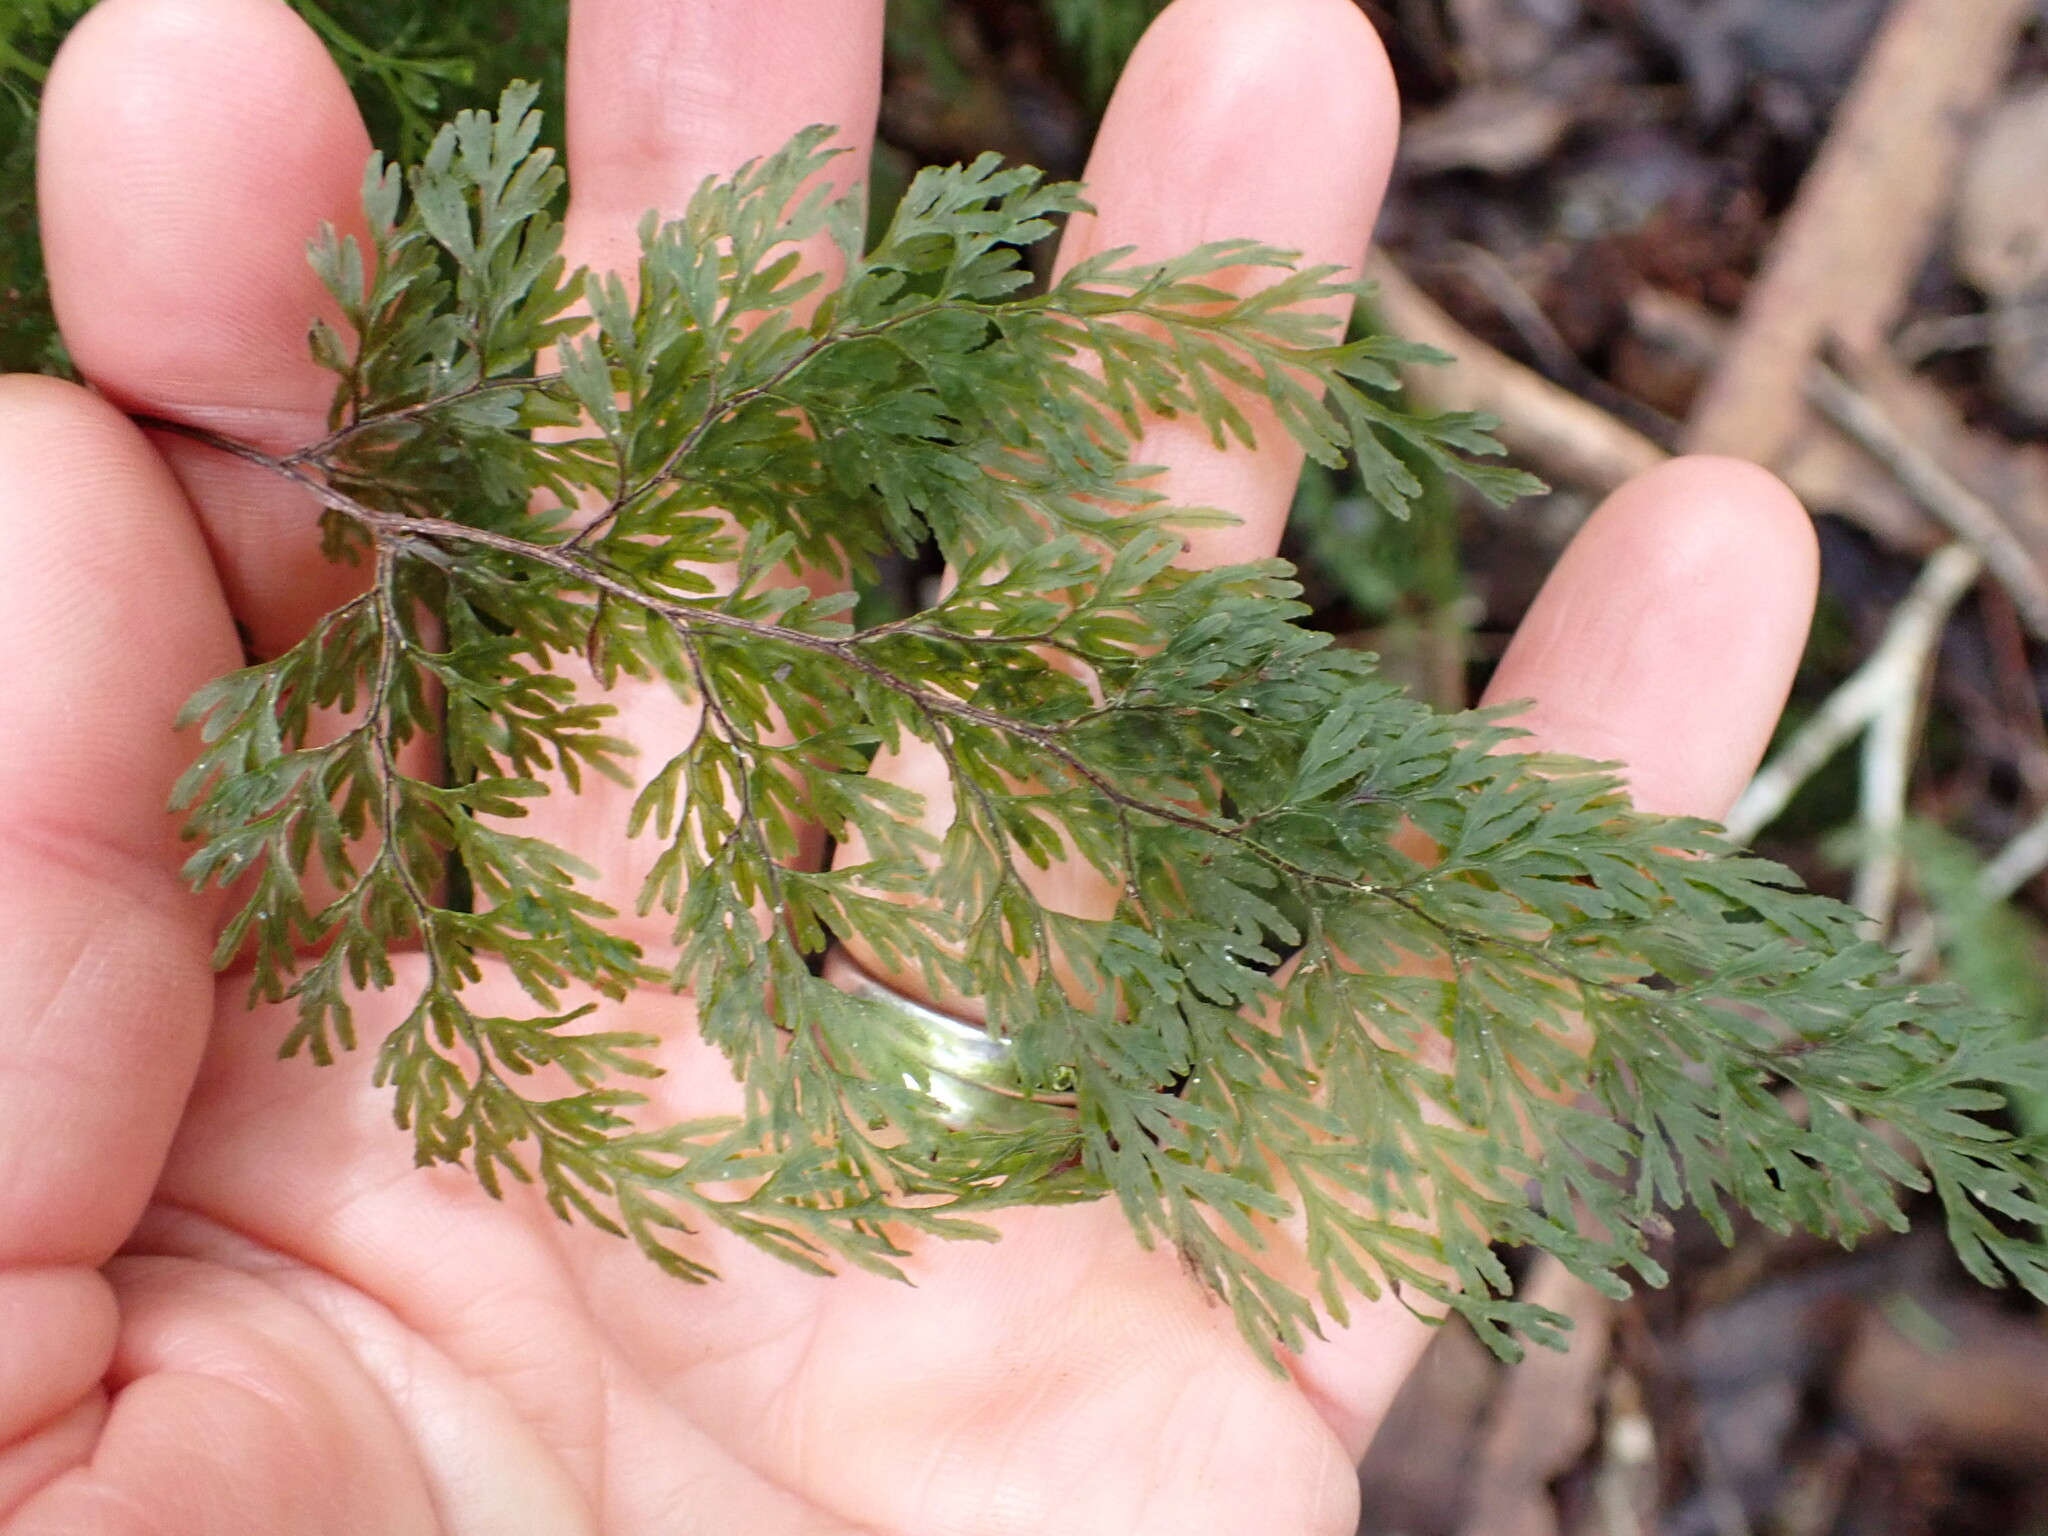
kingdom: Plantae
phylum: Tracheophyta
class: Polypodiopsida
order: Hymenophyllales
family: Hymenophyllaceae
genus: Hymenophyllum
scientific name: Hymenophyllum bivalve
